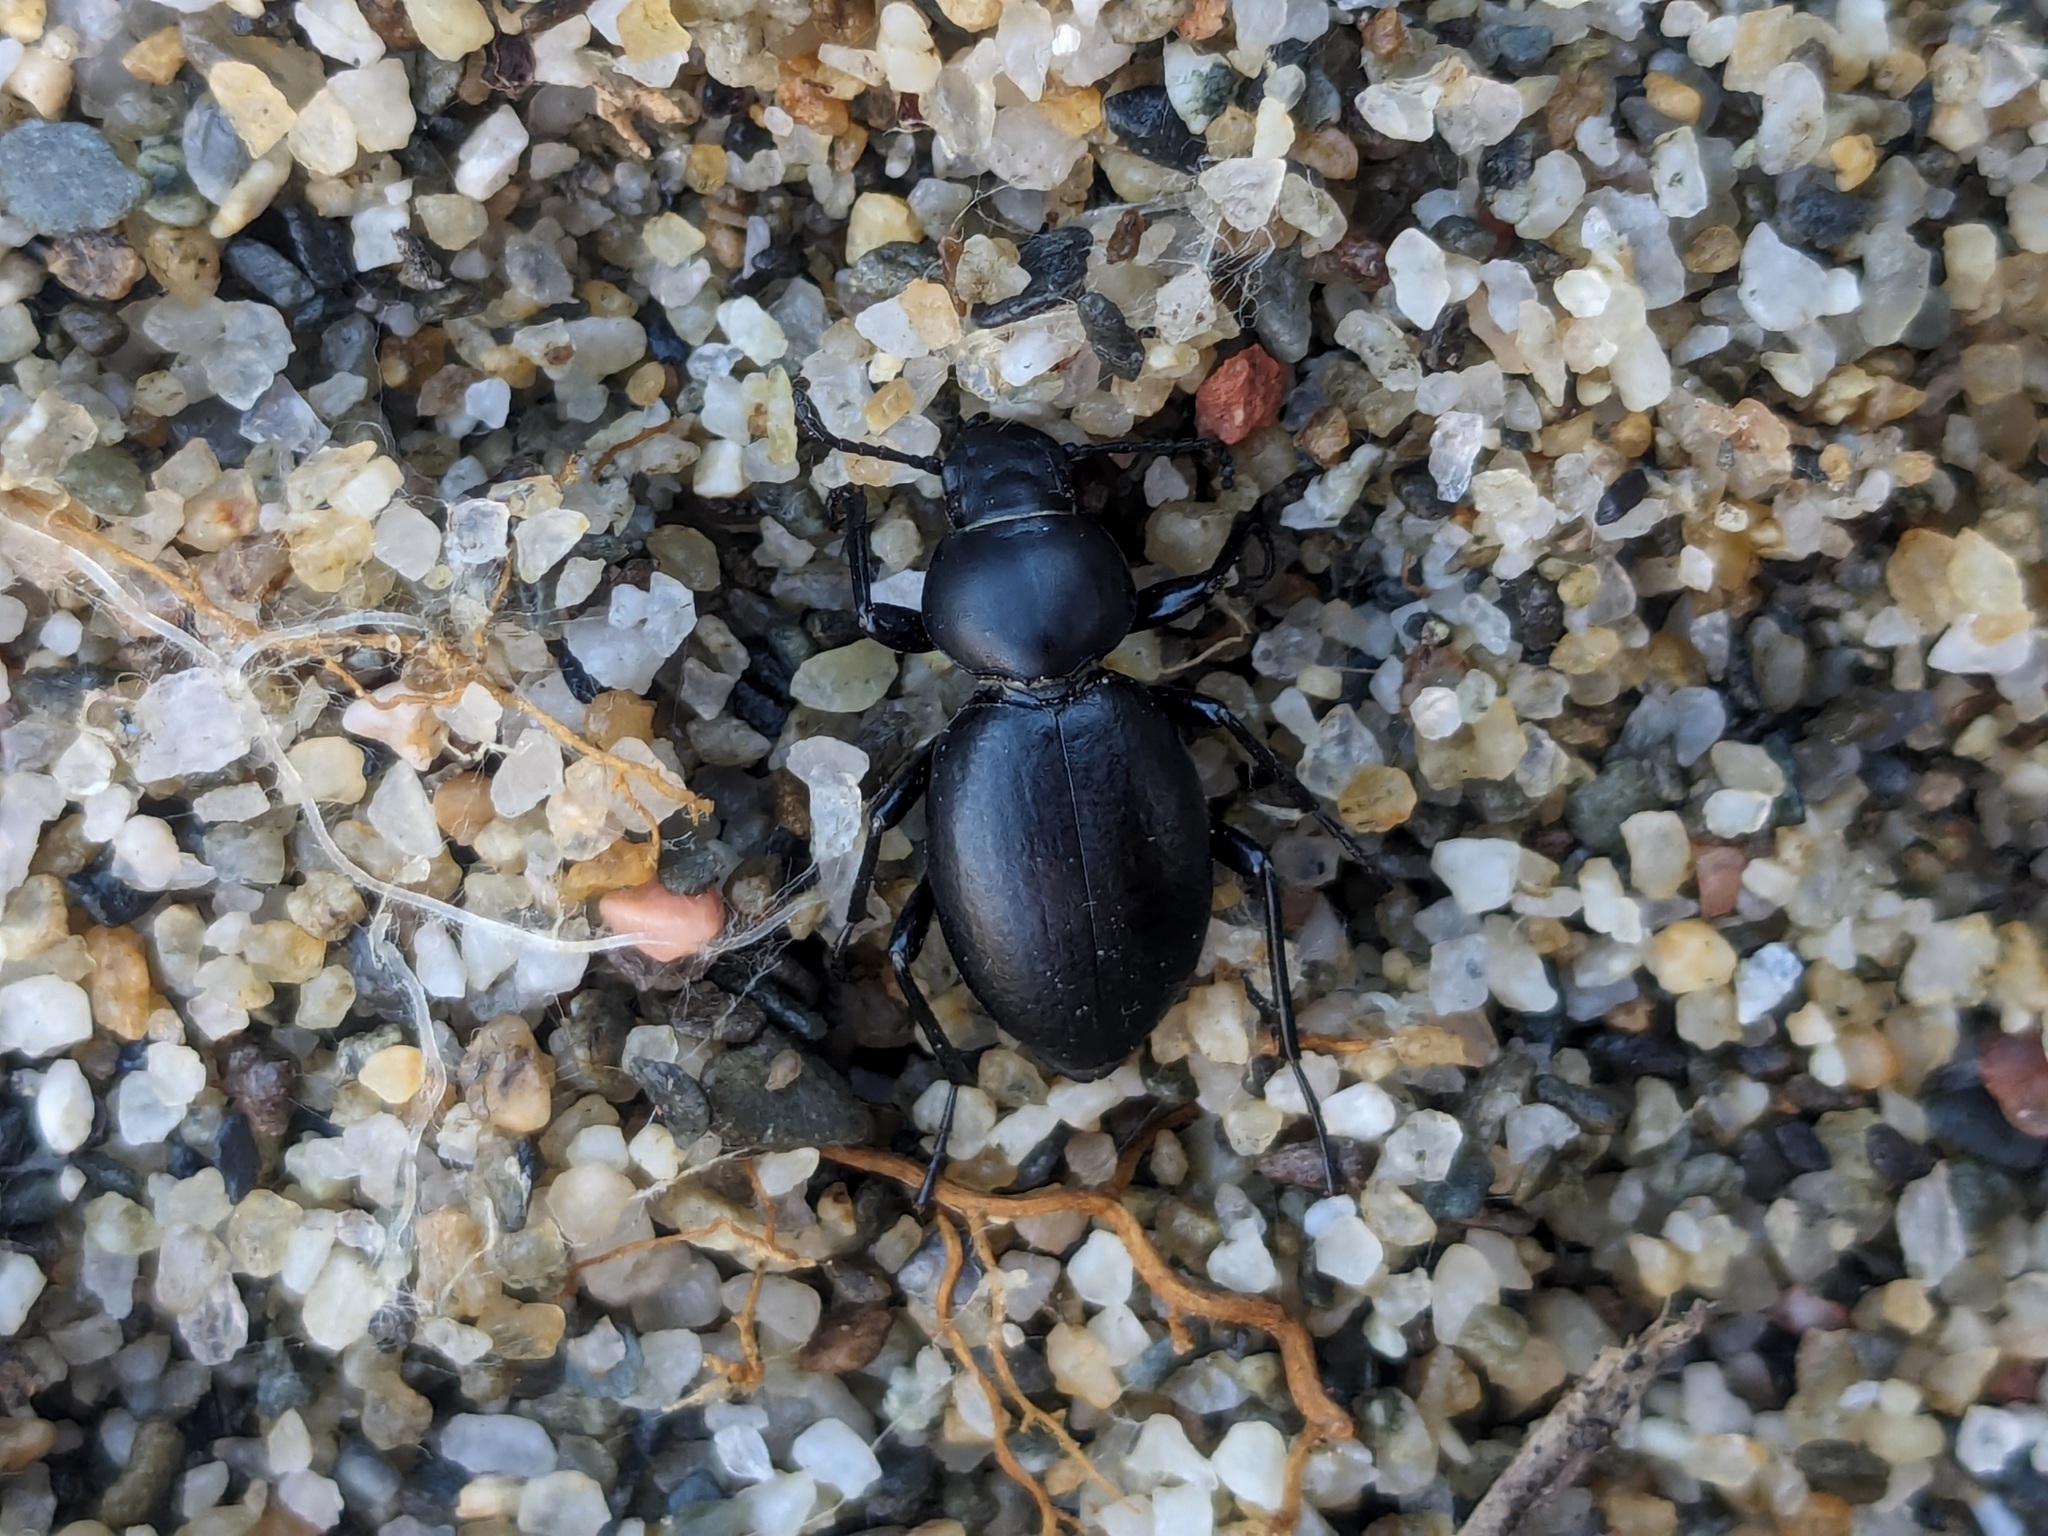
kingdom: Animalia
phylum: Arthropoda
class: Insecta
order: Coleoptera
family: Tenebrionidae
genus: Tentyria
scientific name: Tentyria mucronata
